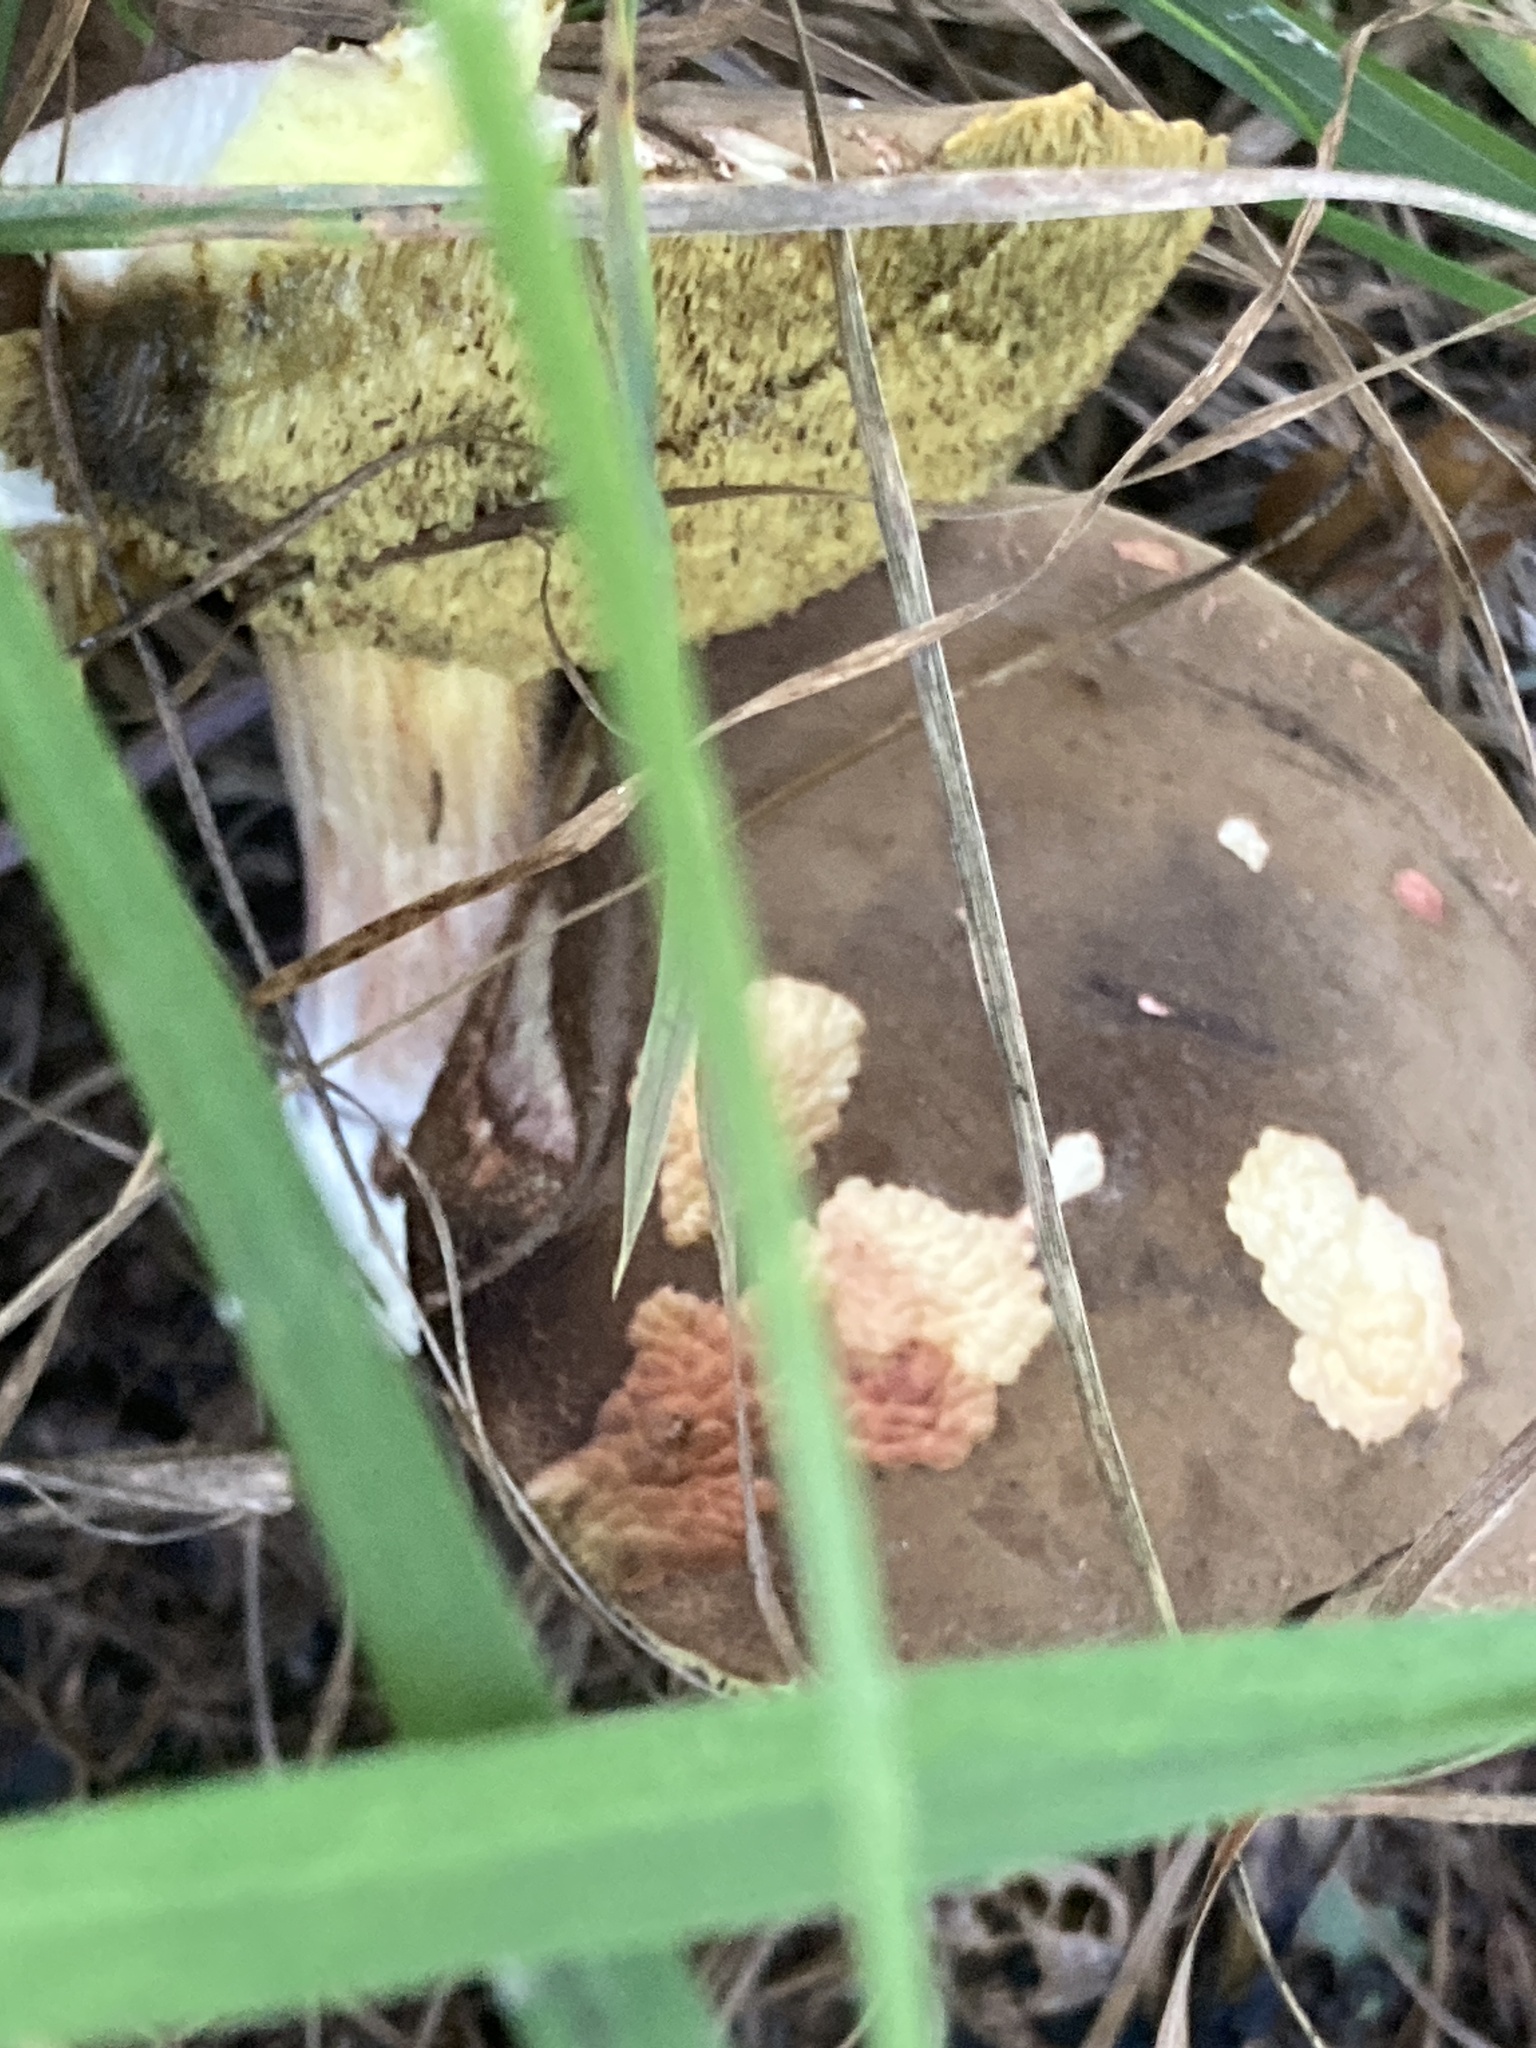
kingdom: Fungi
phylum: Basidiomycota
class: Agaricomycetes
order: Boletales
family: Boletaceae
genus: Xerocomellus
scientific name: Xerocomellus chrysenteron
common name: Red-cracking bolete
